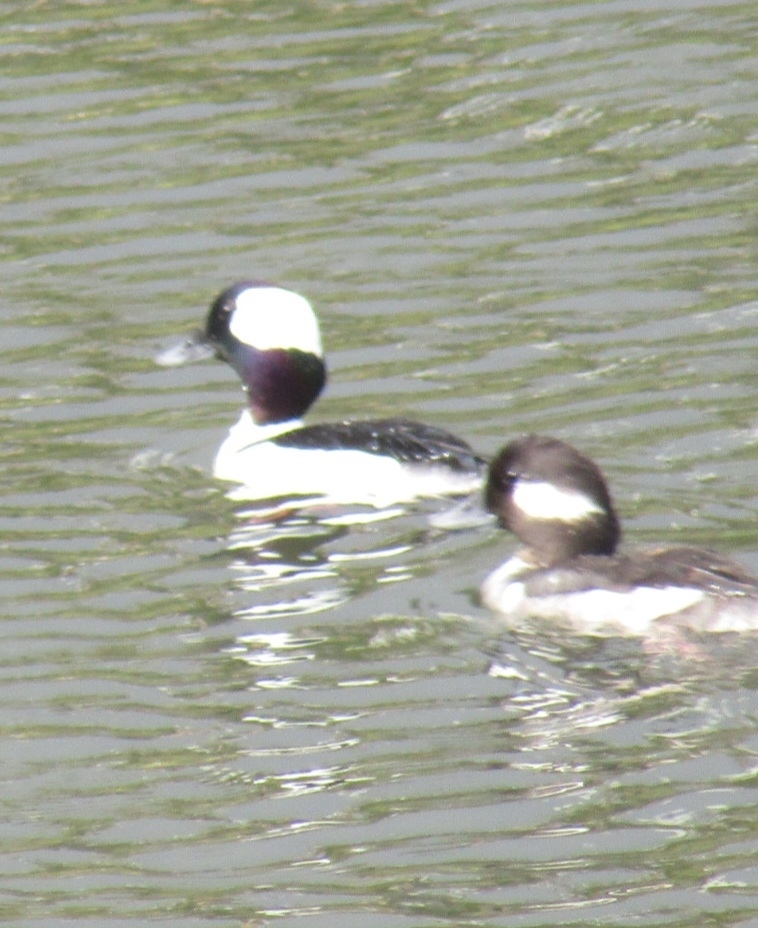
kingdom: Animalia
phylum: Chordata
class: Aves
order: Anseriformes
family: Anatidae
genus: Bucephala
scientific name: Bucephala albeola
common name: Bufflehead
